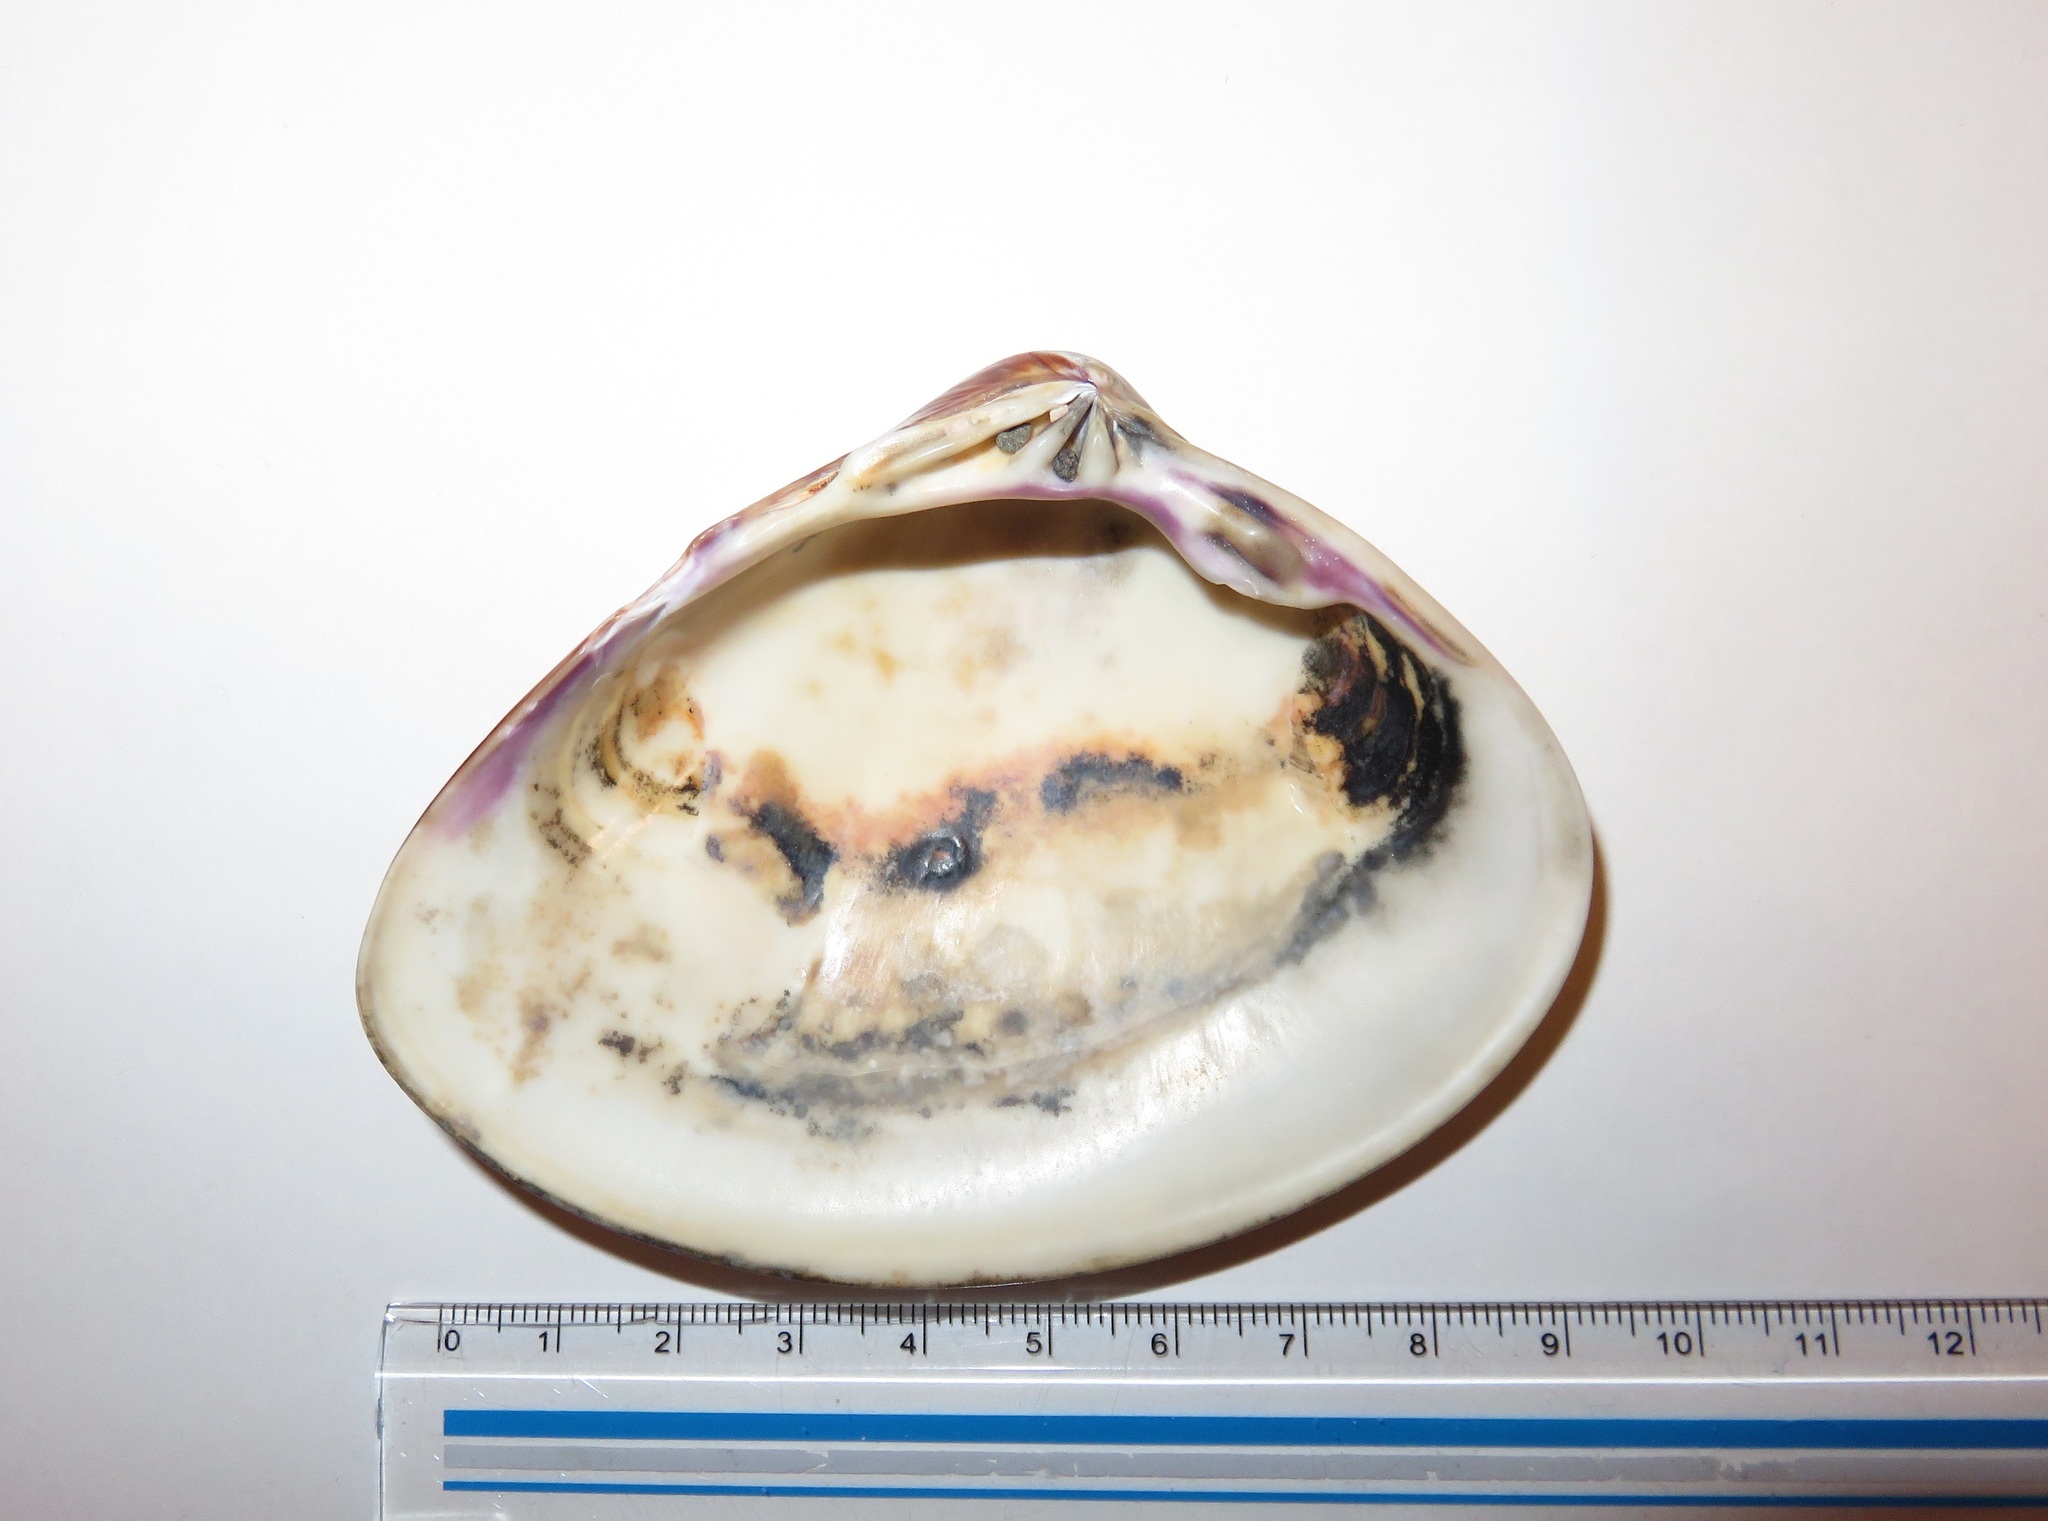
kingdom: Animalia
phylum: Mollusca
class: Bivalvia
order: Venerida
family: Veneridae
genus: Meretrix
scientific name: Meretrix lamarckii
